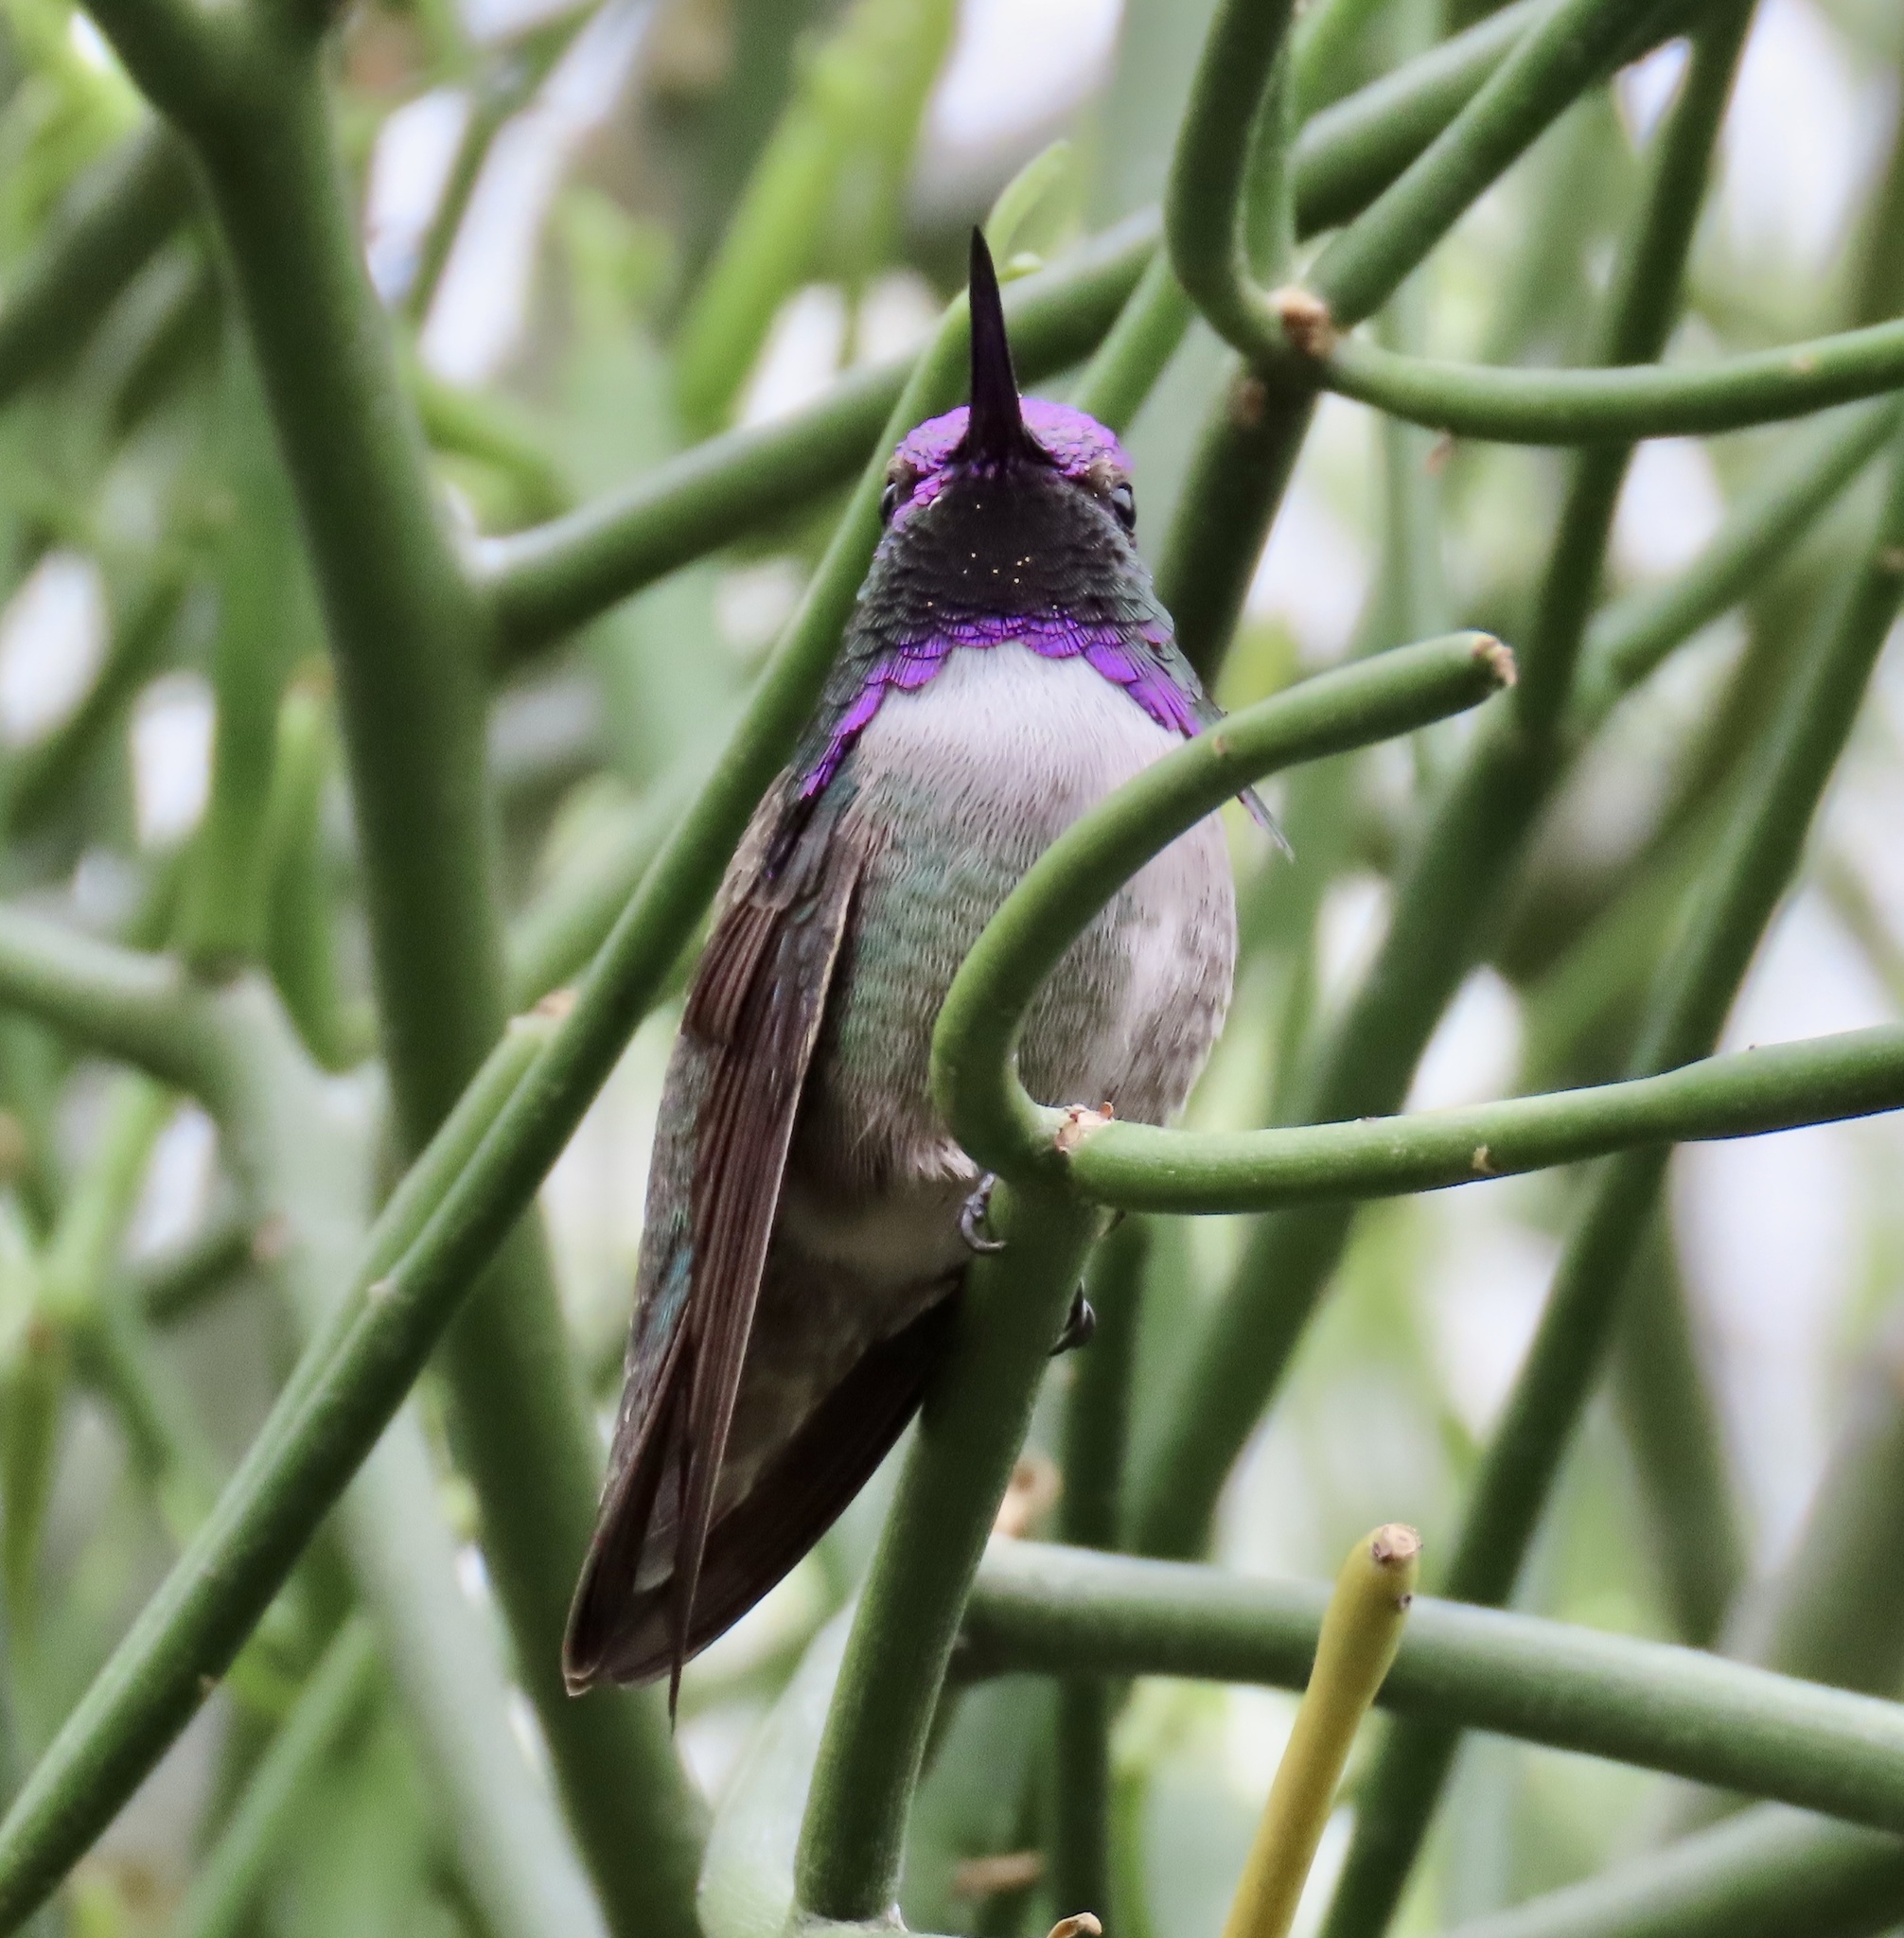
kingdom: Animalia
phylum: Chordata
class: Aves
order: Apodiformes
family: Trochilidae
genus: Calypte
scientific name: Calypte costae
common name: Costa's hummingbird
